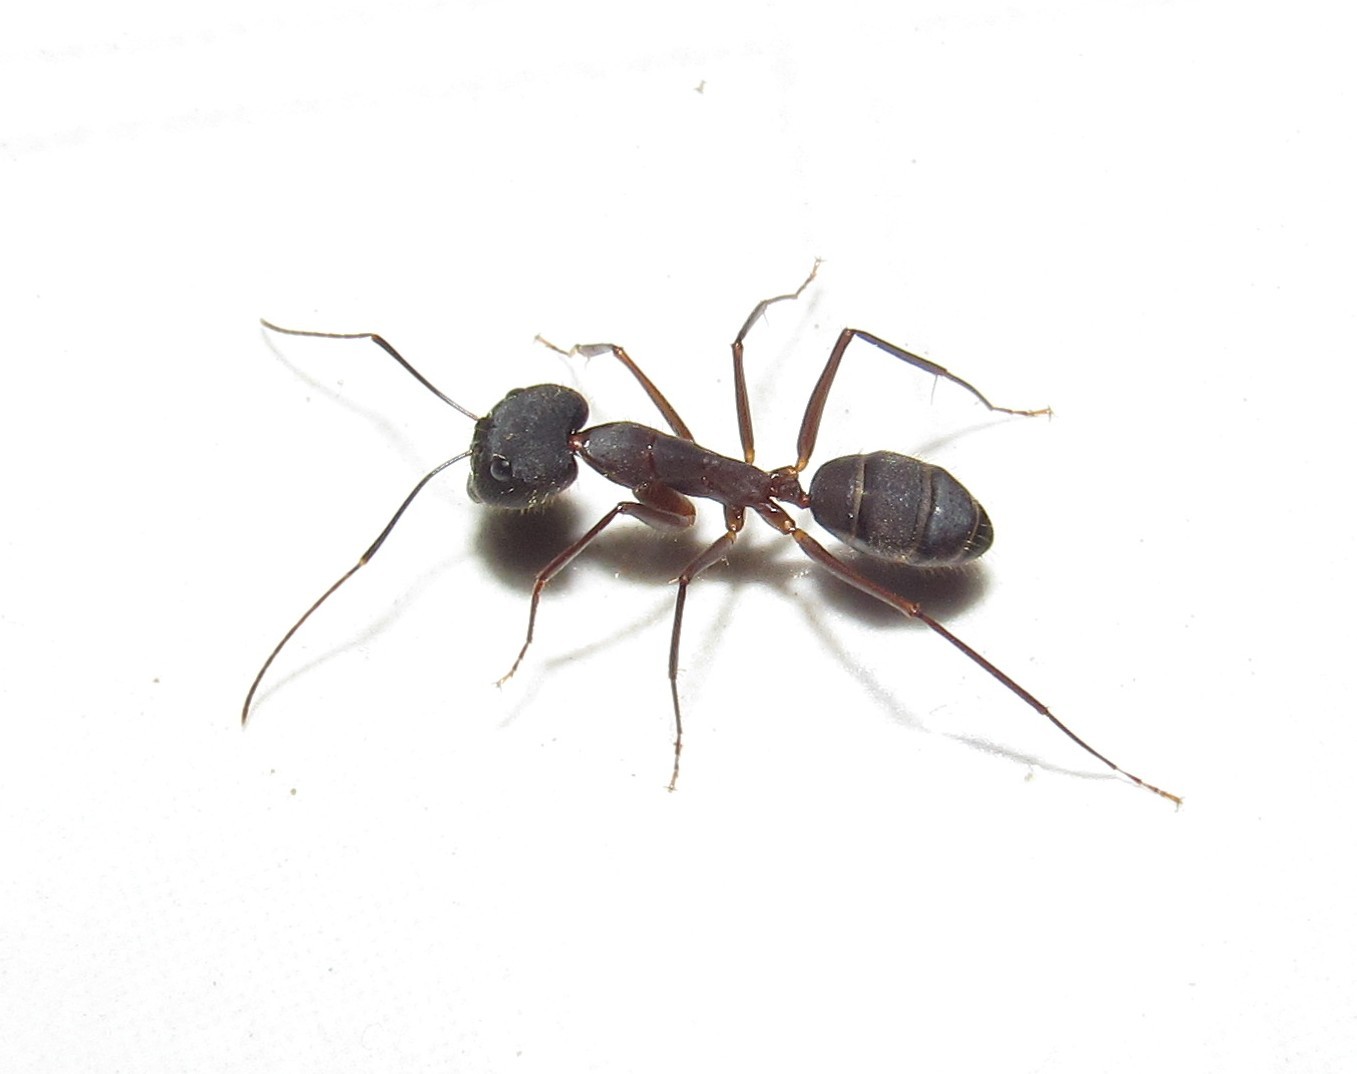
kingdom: Animalia
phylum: Arthropoda
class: Insecta
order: Hymenoptera
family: Formicidae
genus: Camponotus
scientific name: Camponotus lespesii
